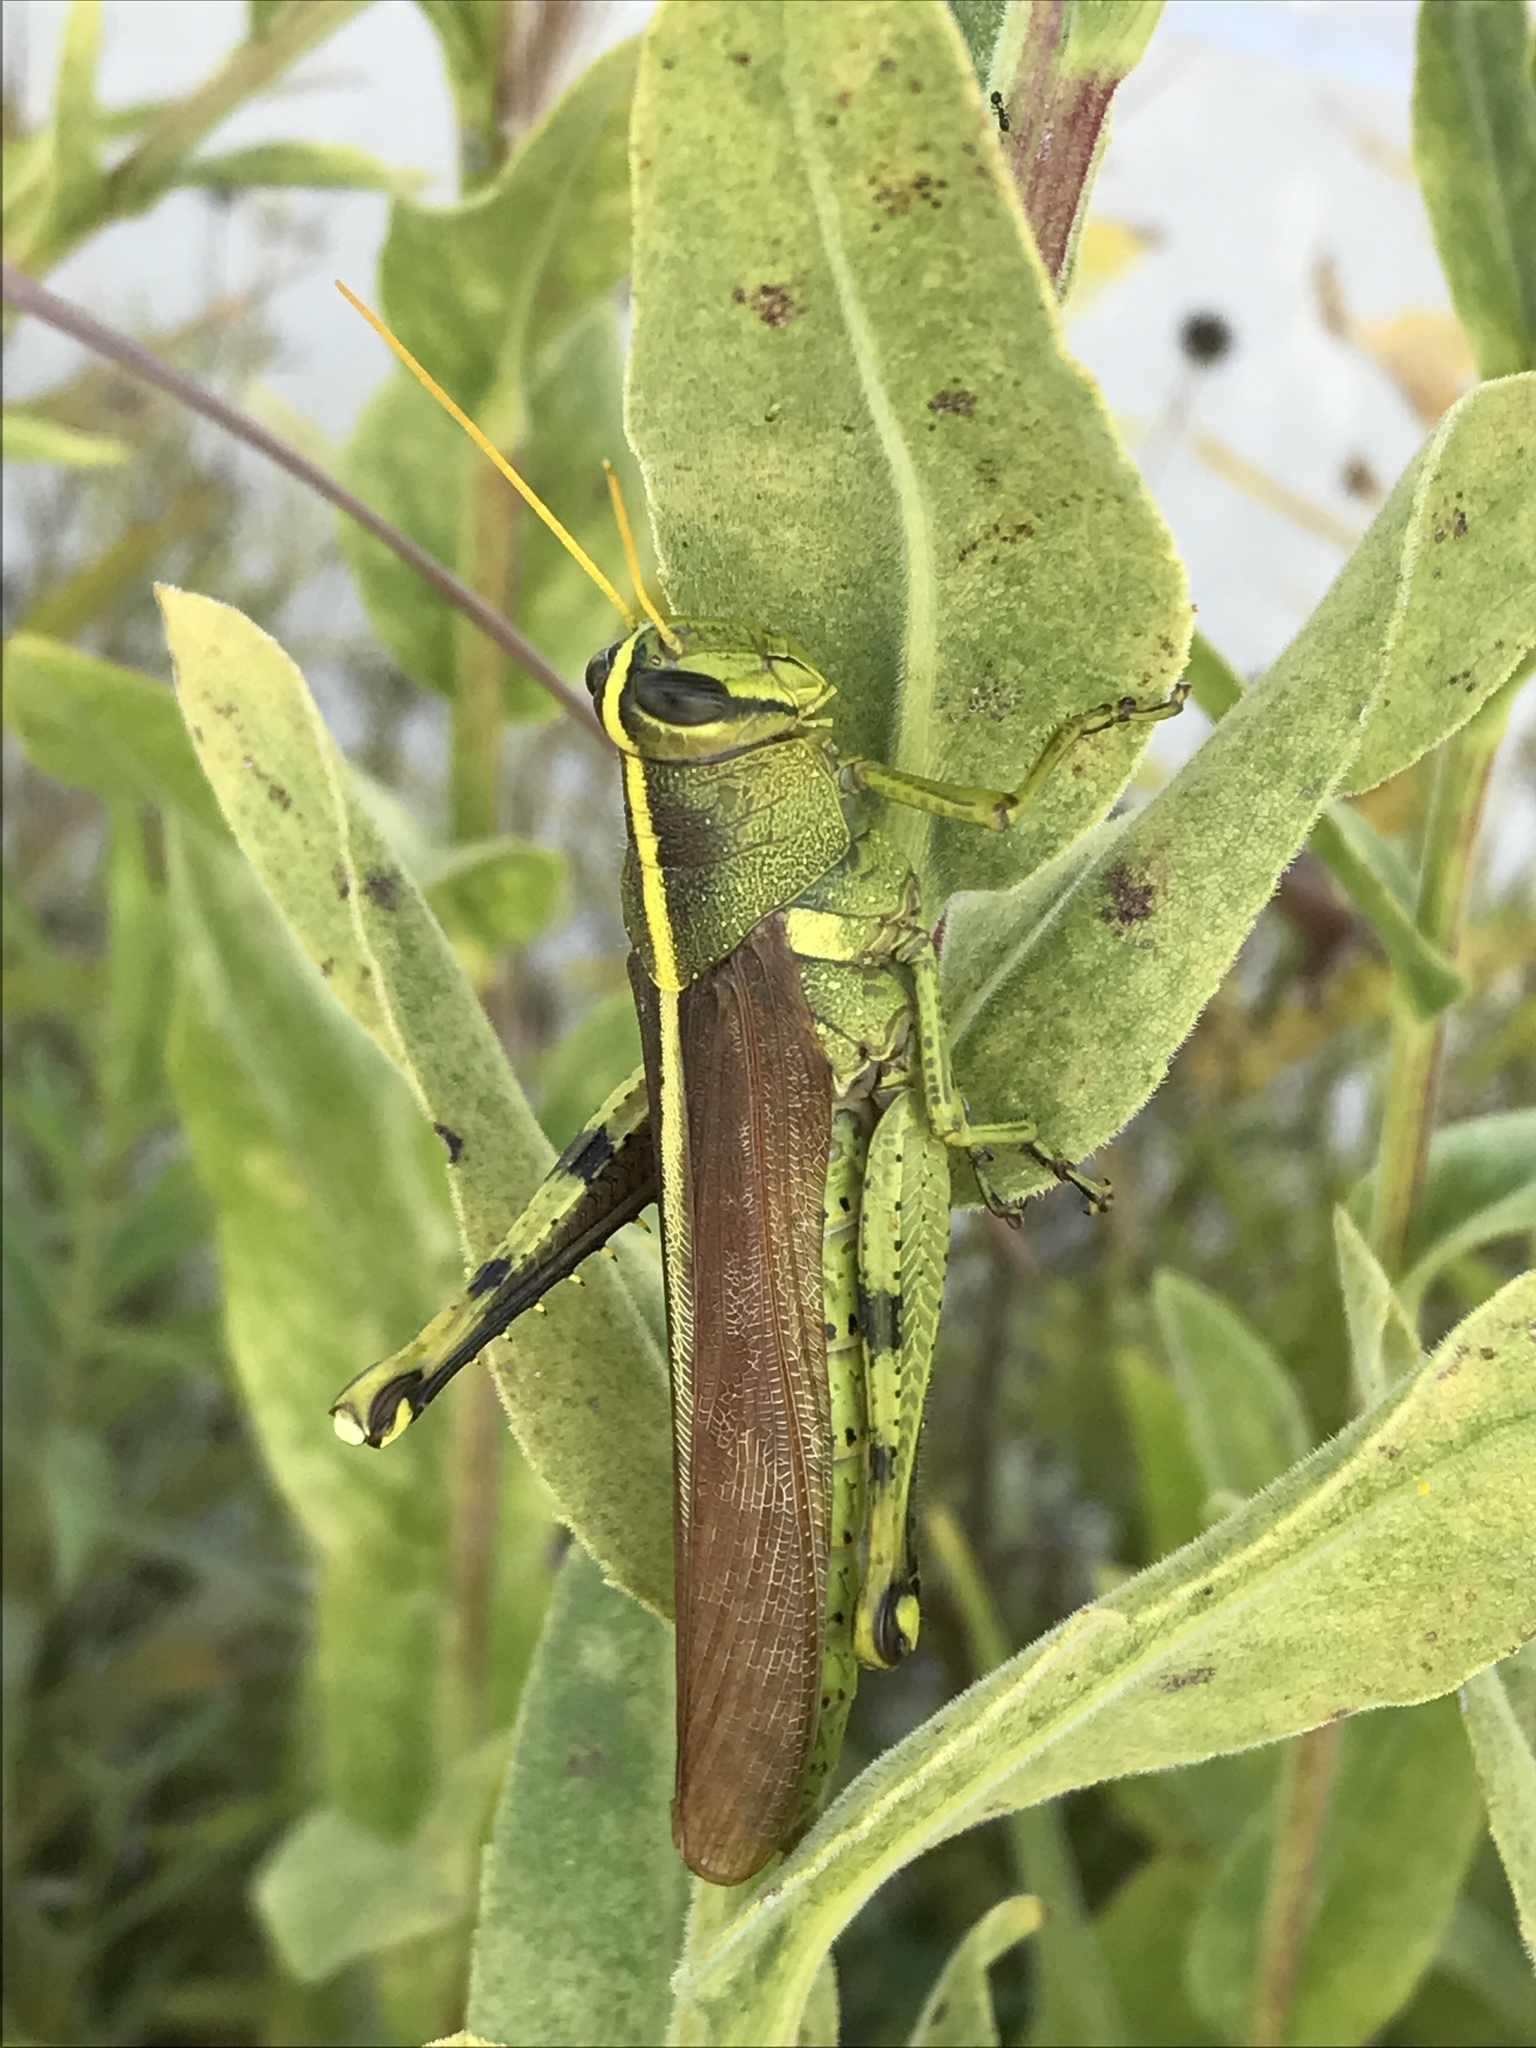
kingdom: Animalia
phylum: Arthropoda
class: Insecta
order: Orthoptera
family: Acrididae
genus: Schistocerca
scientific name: Schistocerca obscura
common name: Obscure bird grasshopper
